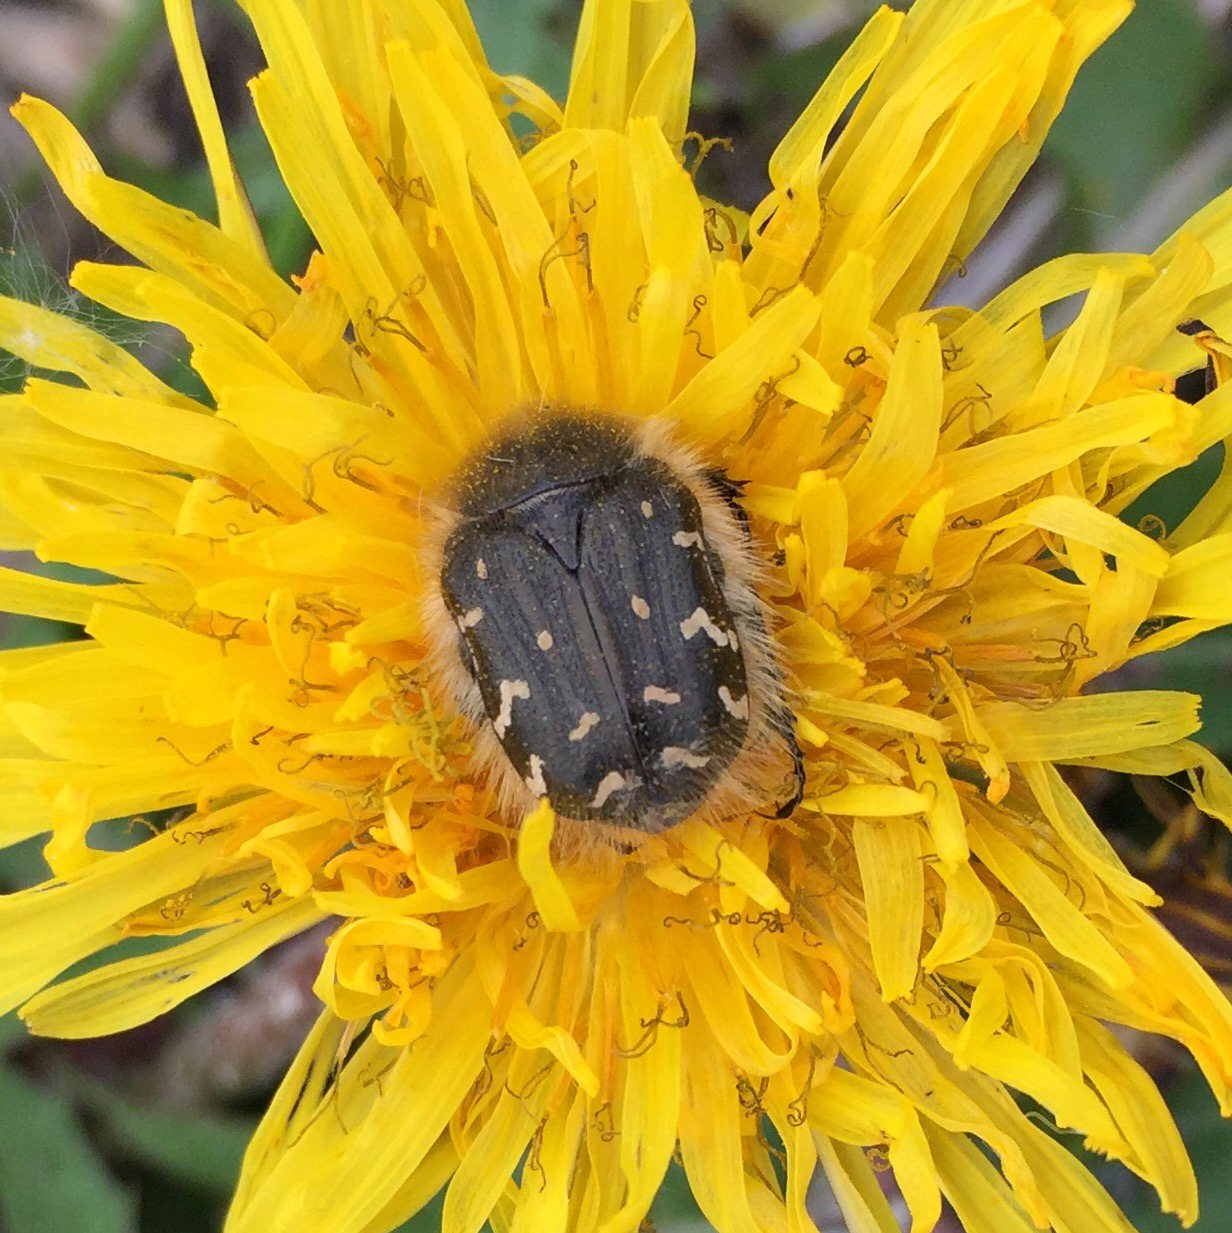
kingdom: Animalia
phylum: Arthropoda
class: Insecta
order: Coleoptera
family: Scarabaeidae
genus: Tropinota
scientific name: Tropinota hirta
